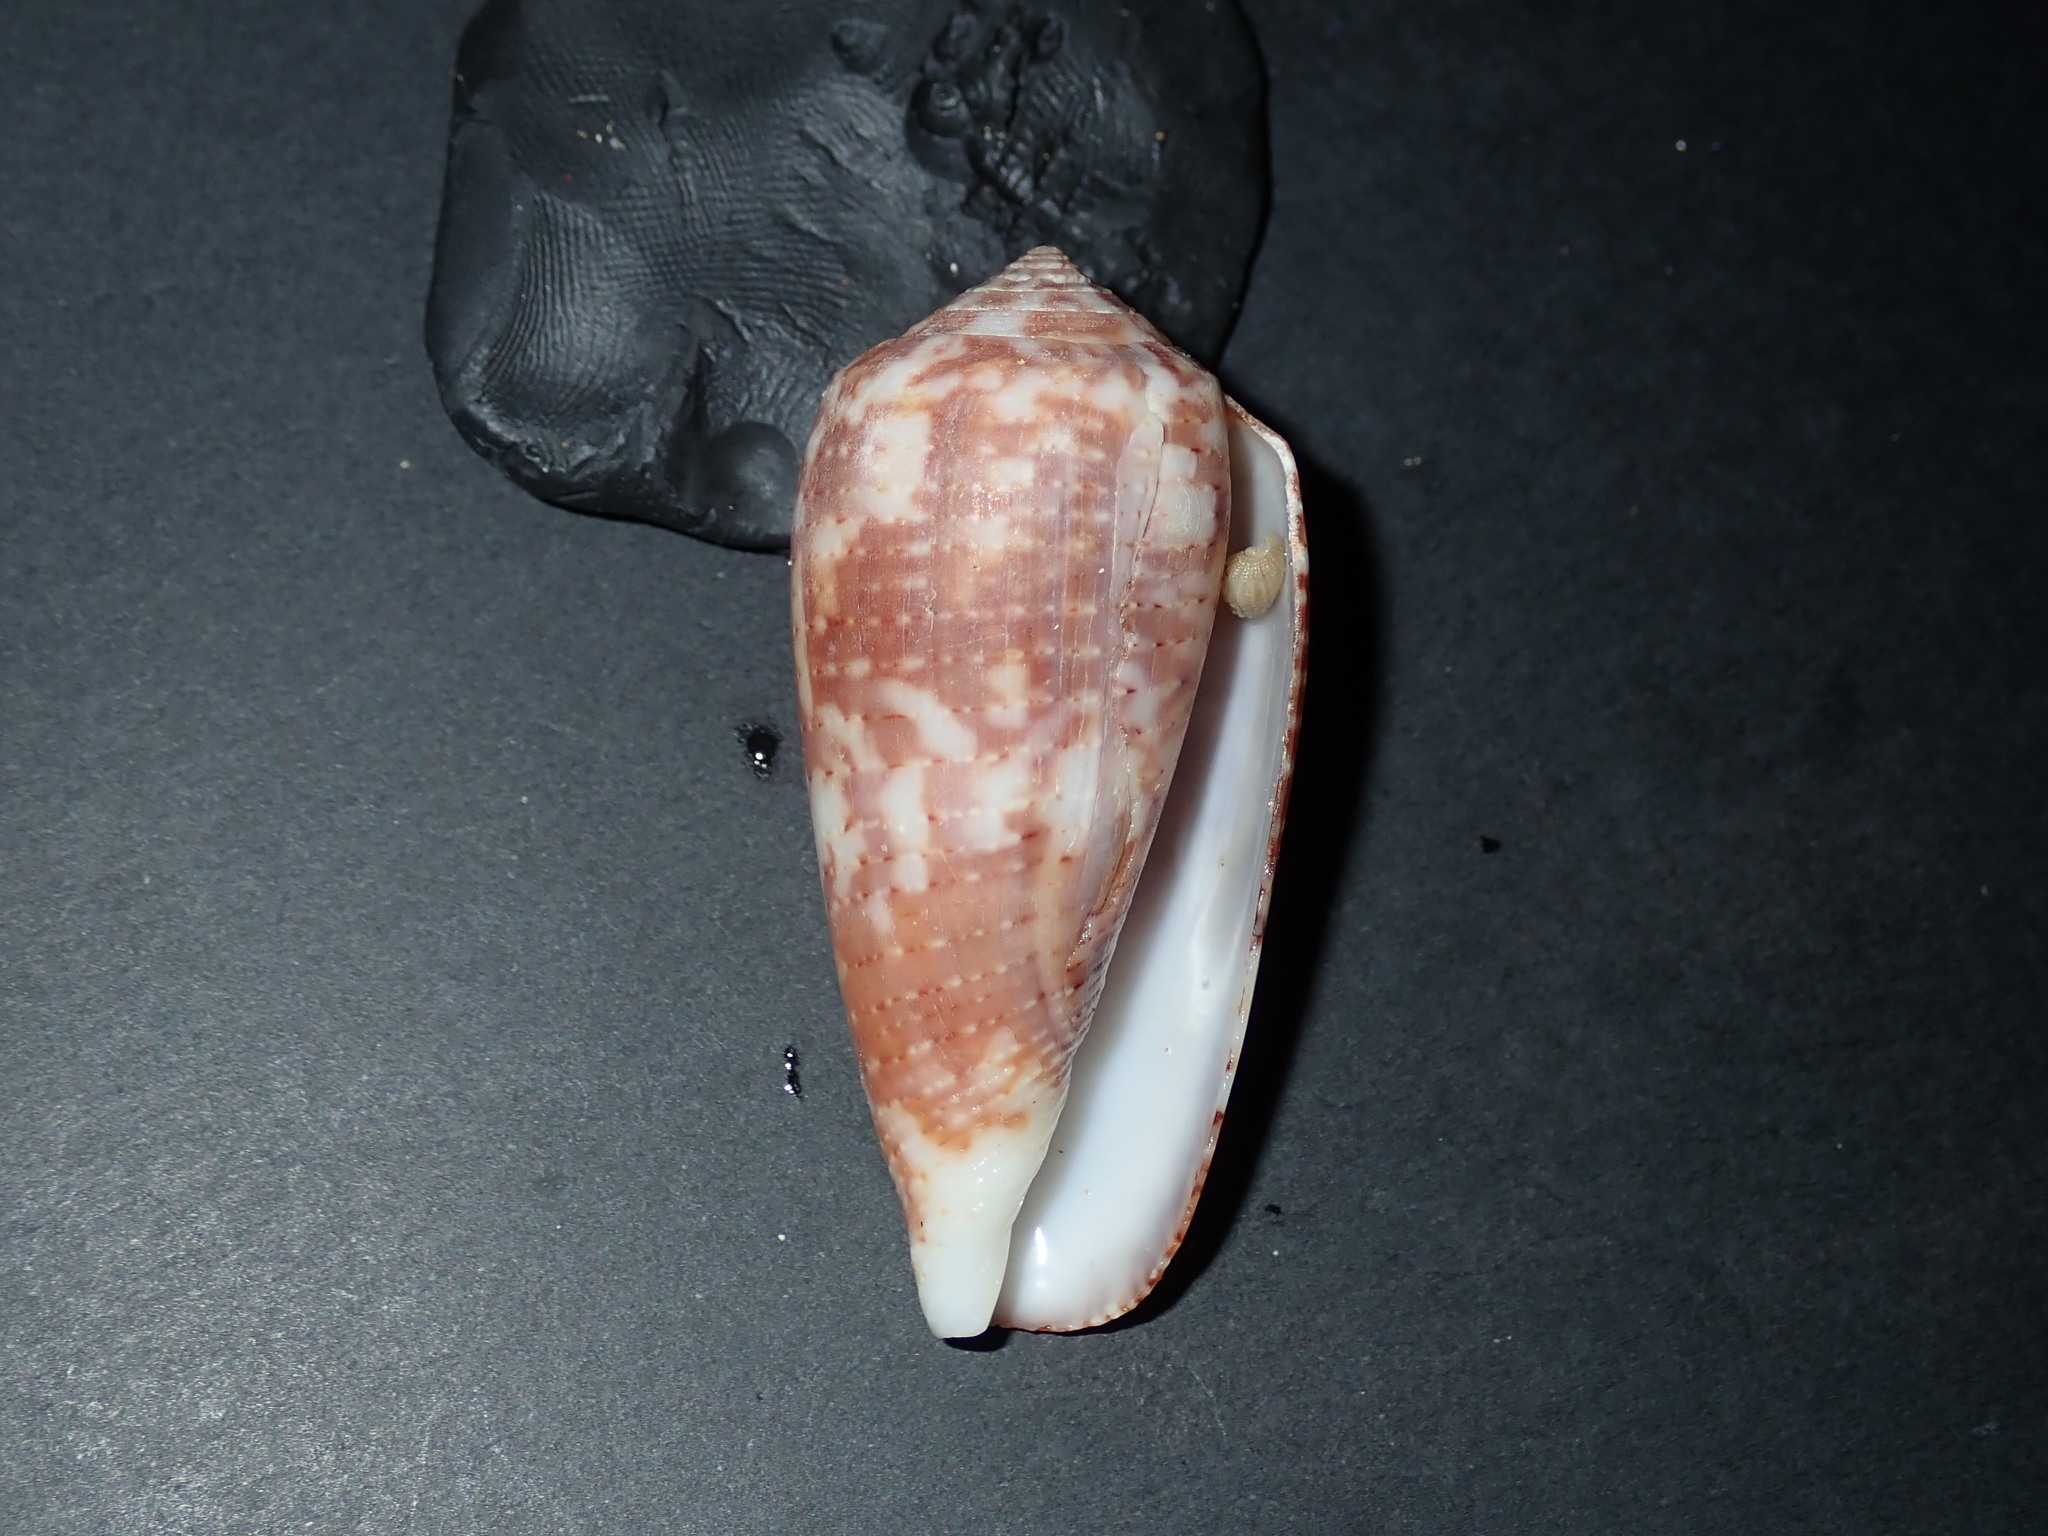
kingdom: Animalia
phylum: Mollusca
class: Gastropoda
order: Neogastropoda
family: Conidae
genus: Conus
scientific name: Conus monachus
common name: Supreme cone
